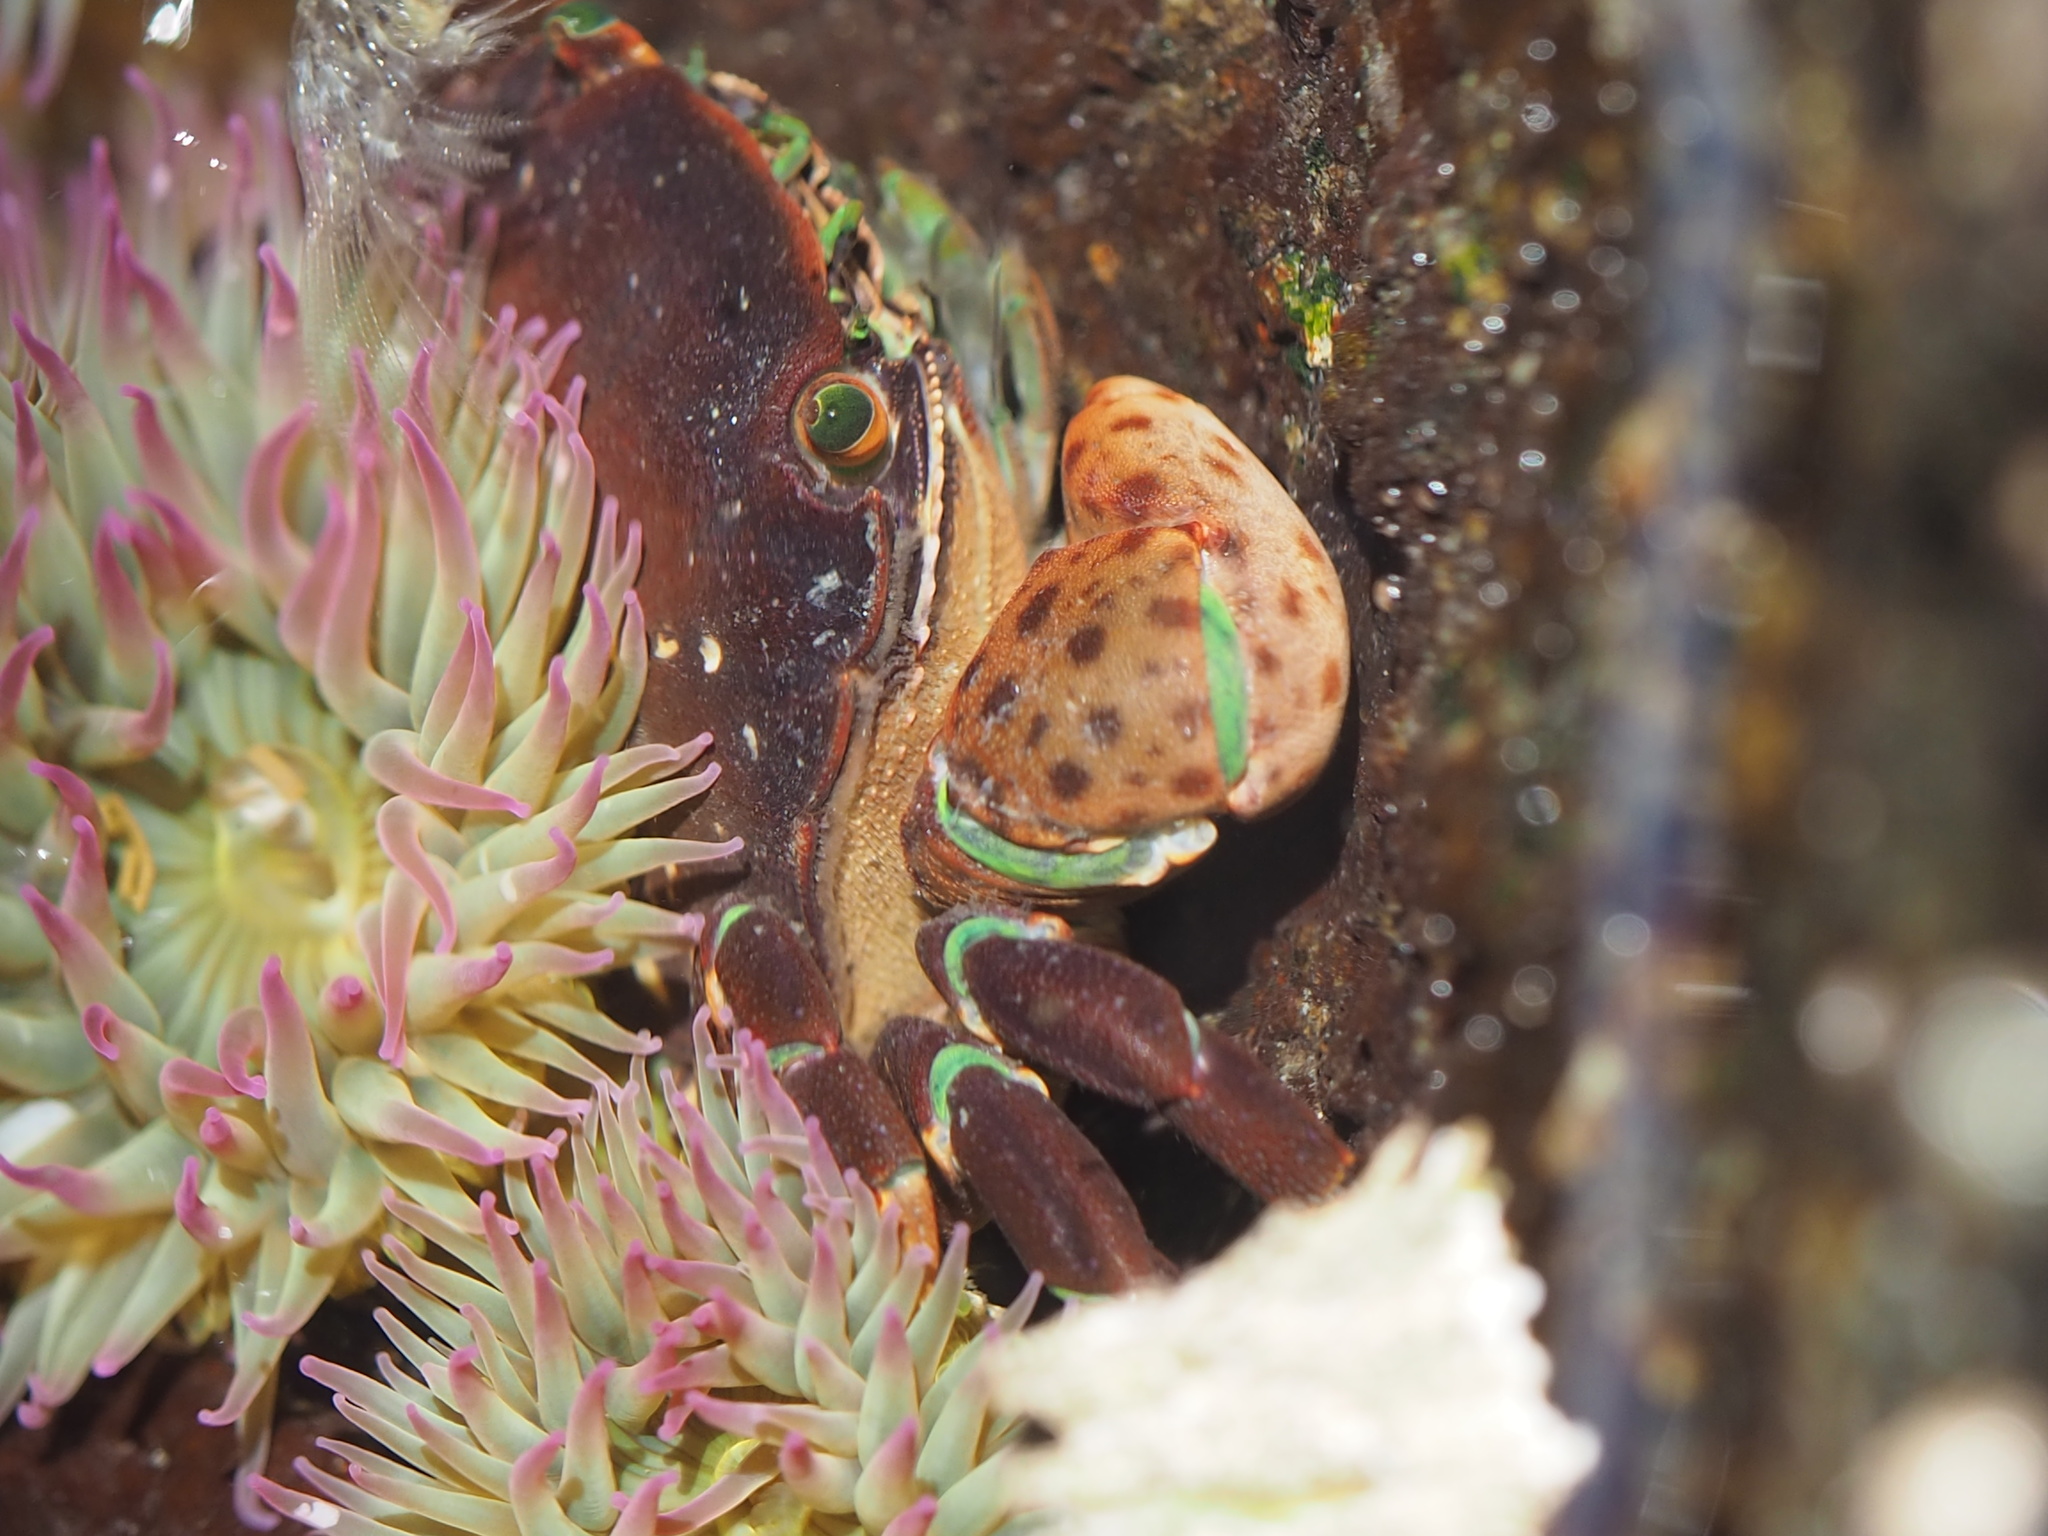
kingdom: Animalia
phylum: Arthropoda
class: Malacostraca
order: Decapoda
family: Varunidae
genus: Hemigrapsus
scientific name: Hemigrapsus nudus
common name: Purple shore crab
